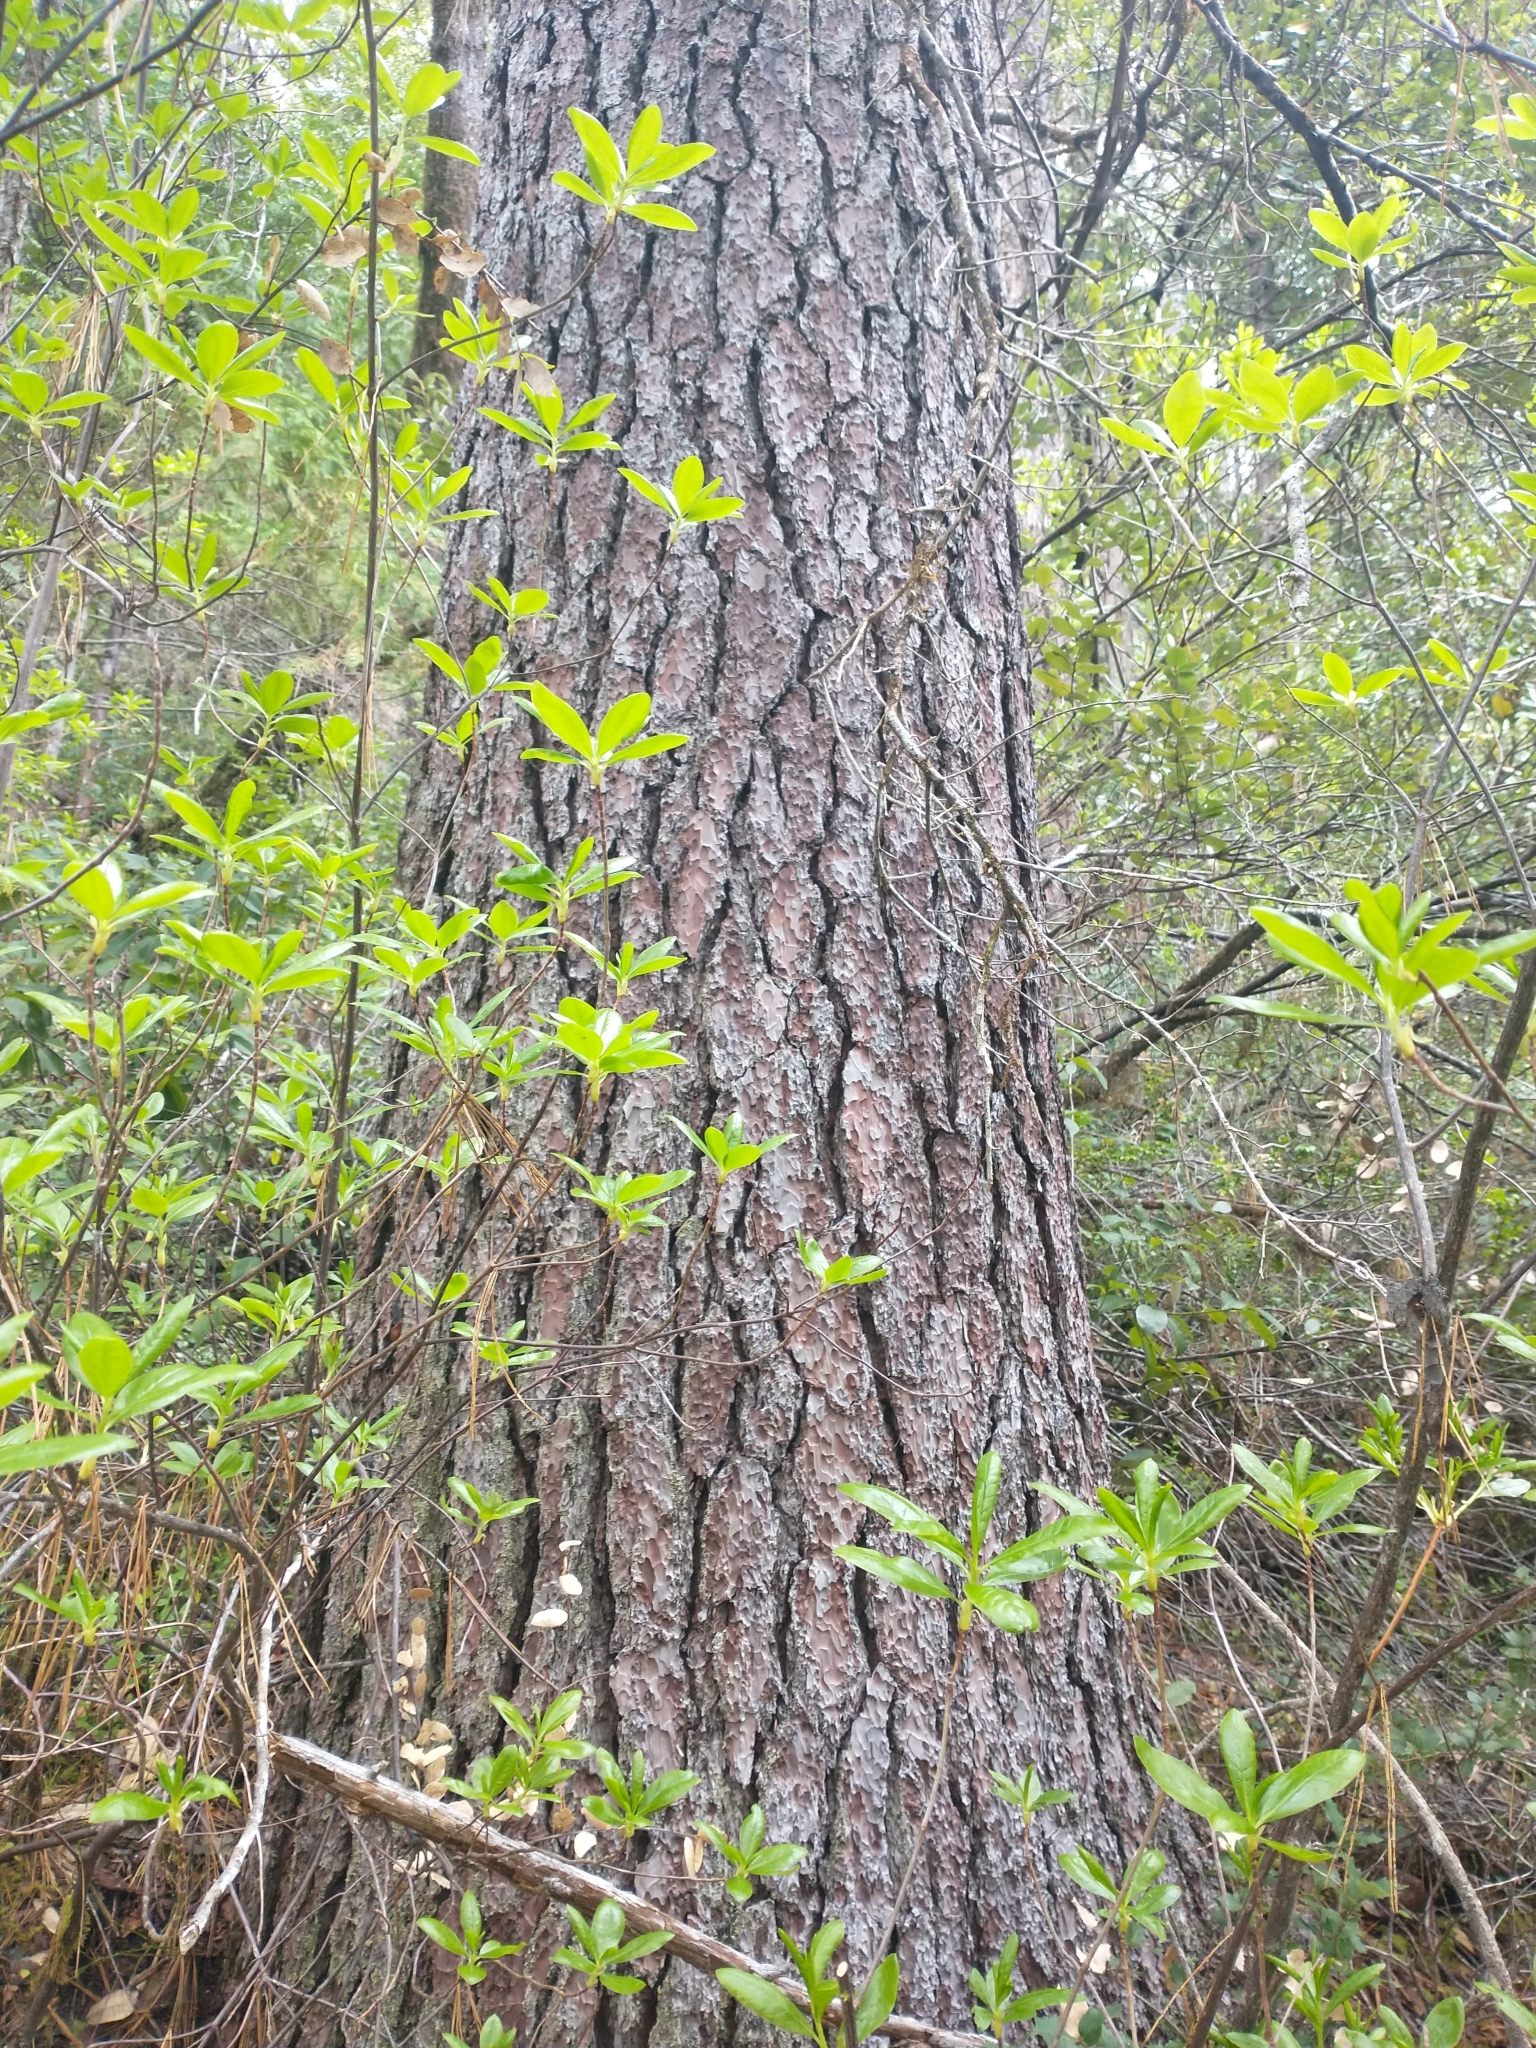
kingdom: Plantae
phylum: Tracheophyta
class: Pinopsida
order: Pinales
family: Pinaceae
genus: Pinus
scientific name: Pinus lambertiana
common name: Sugar pine
